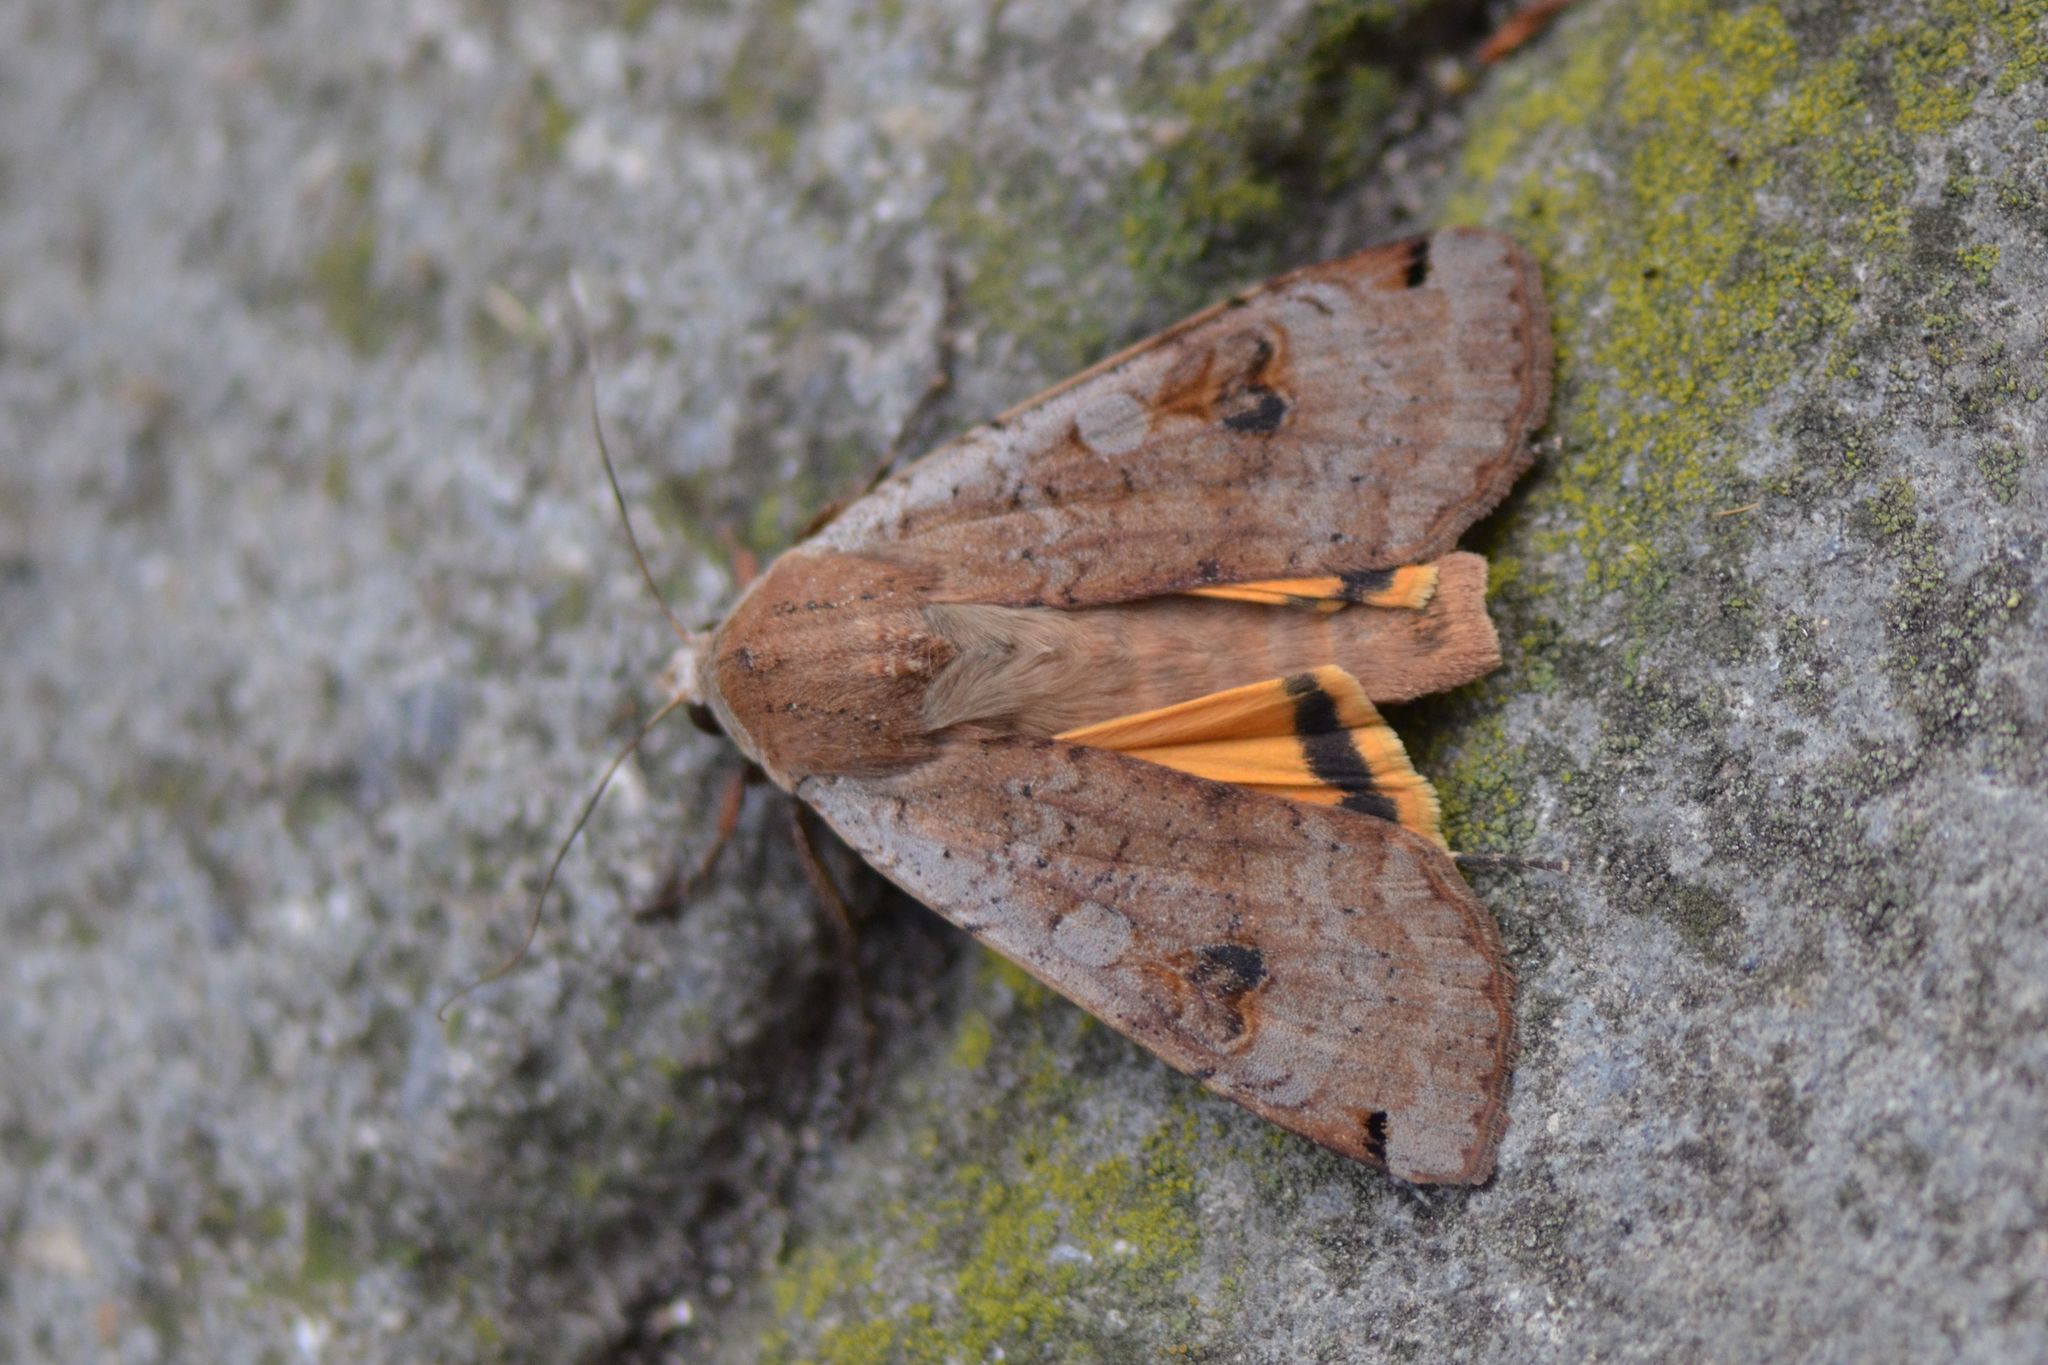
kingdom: Animalia
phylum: Arthropoda
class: Insecta
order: Lepidoptera
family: Noctuidae
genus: Noctua
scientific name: Noctua pronuba
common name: Large yellow underwing
